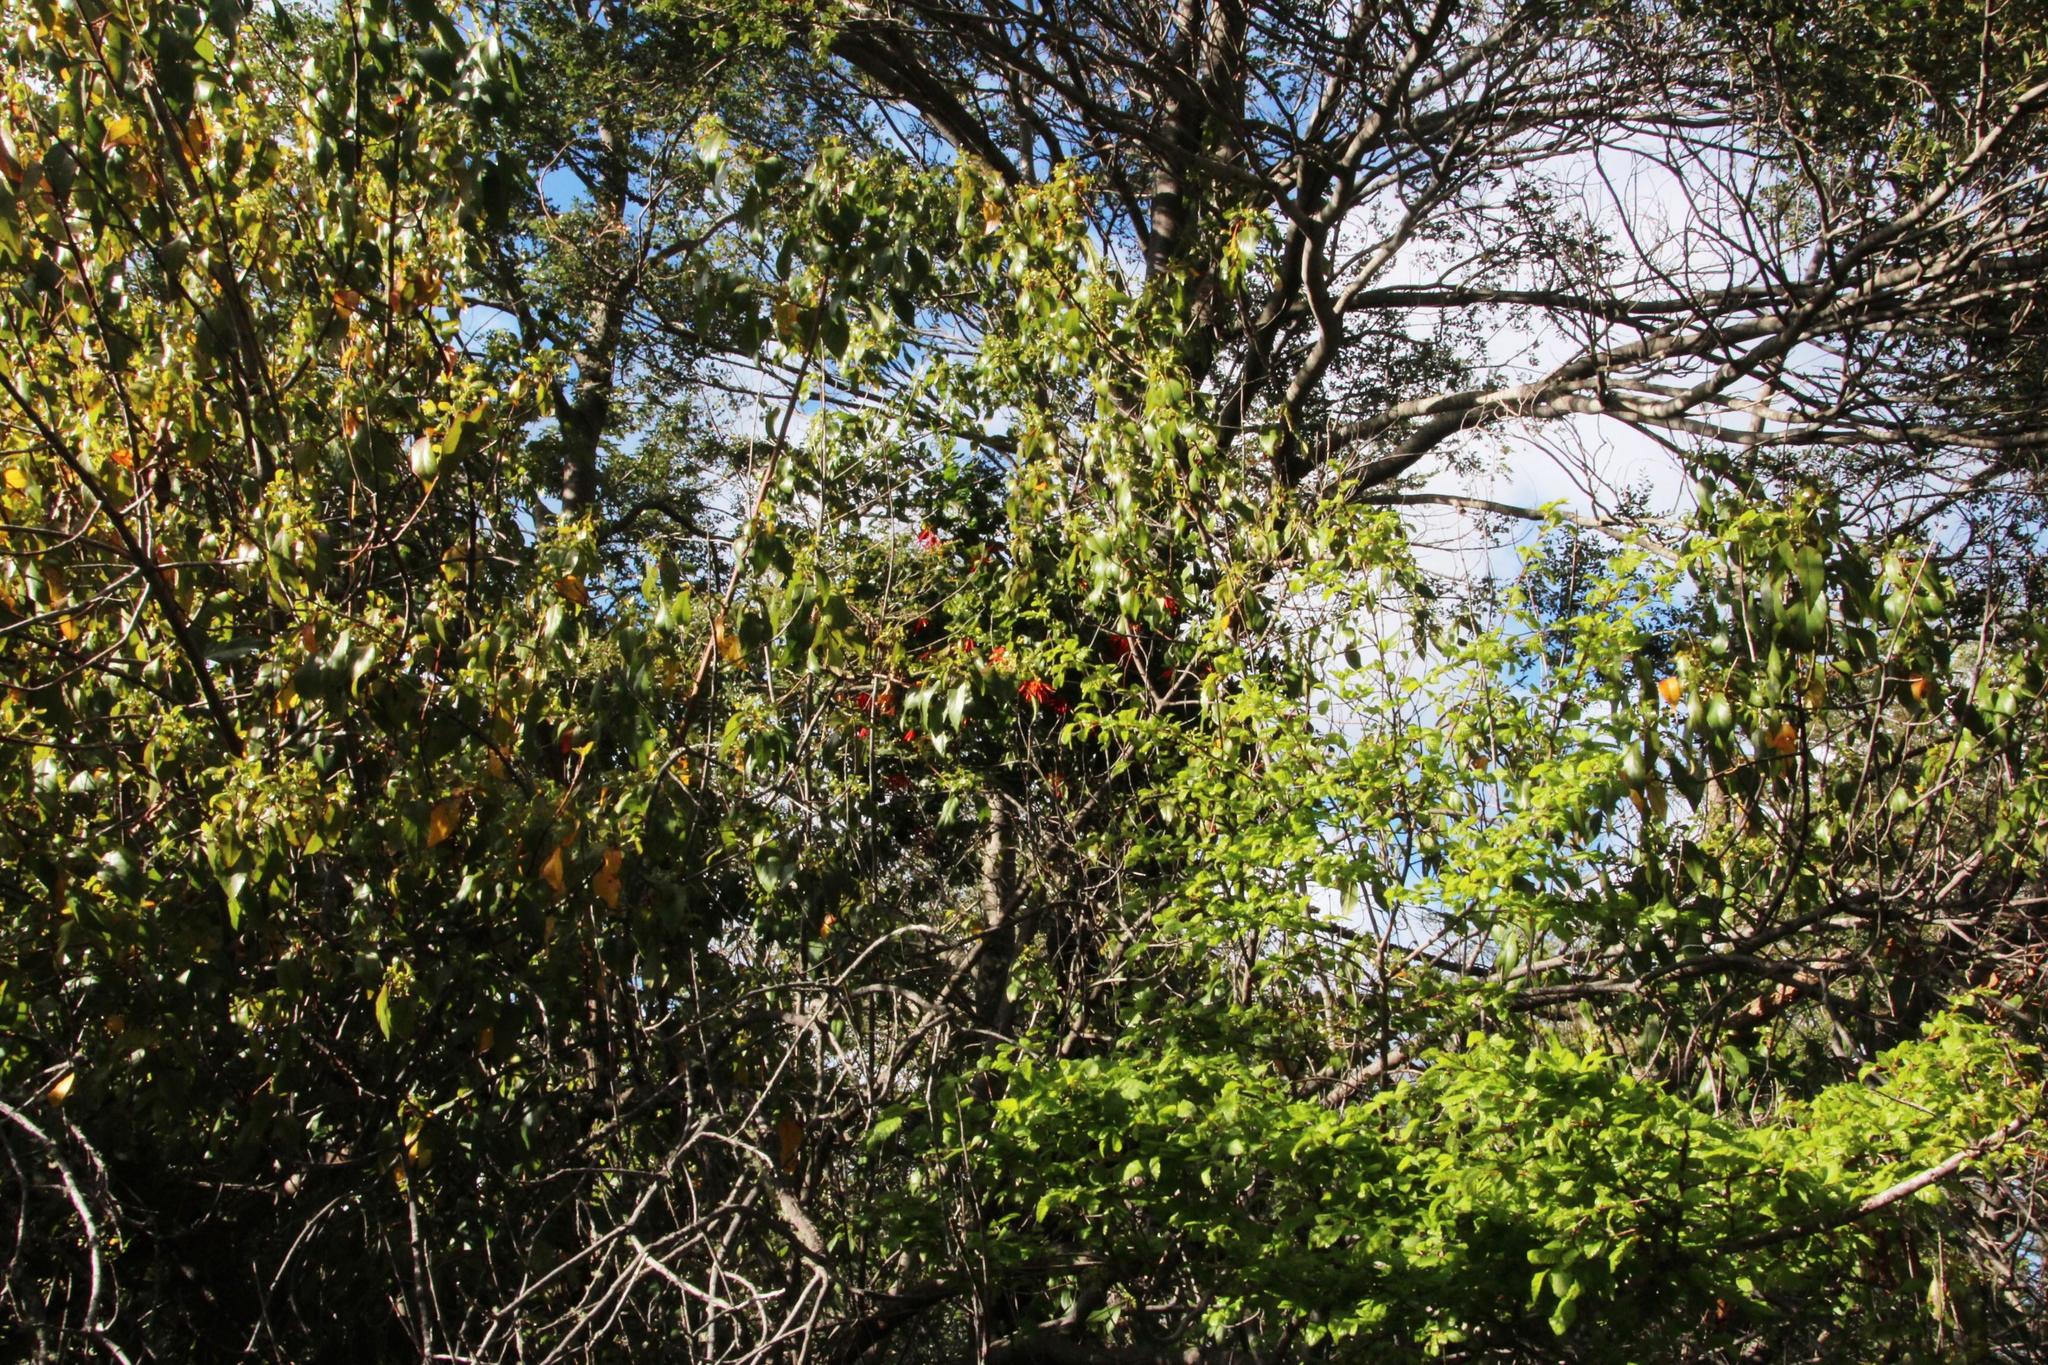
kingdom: Plantae
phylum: Tracheophyta
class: Magnoliopsida
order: Fagales
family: Nothofagaceae
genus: Nothofagus
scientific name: Nothofagus dombeyi
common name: Coigue
